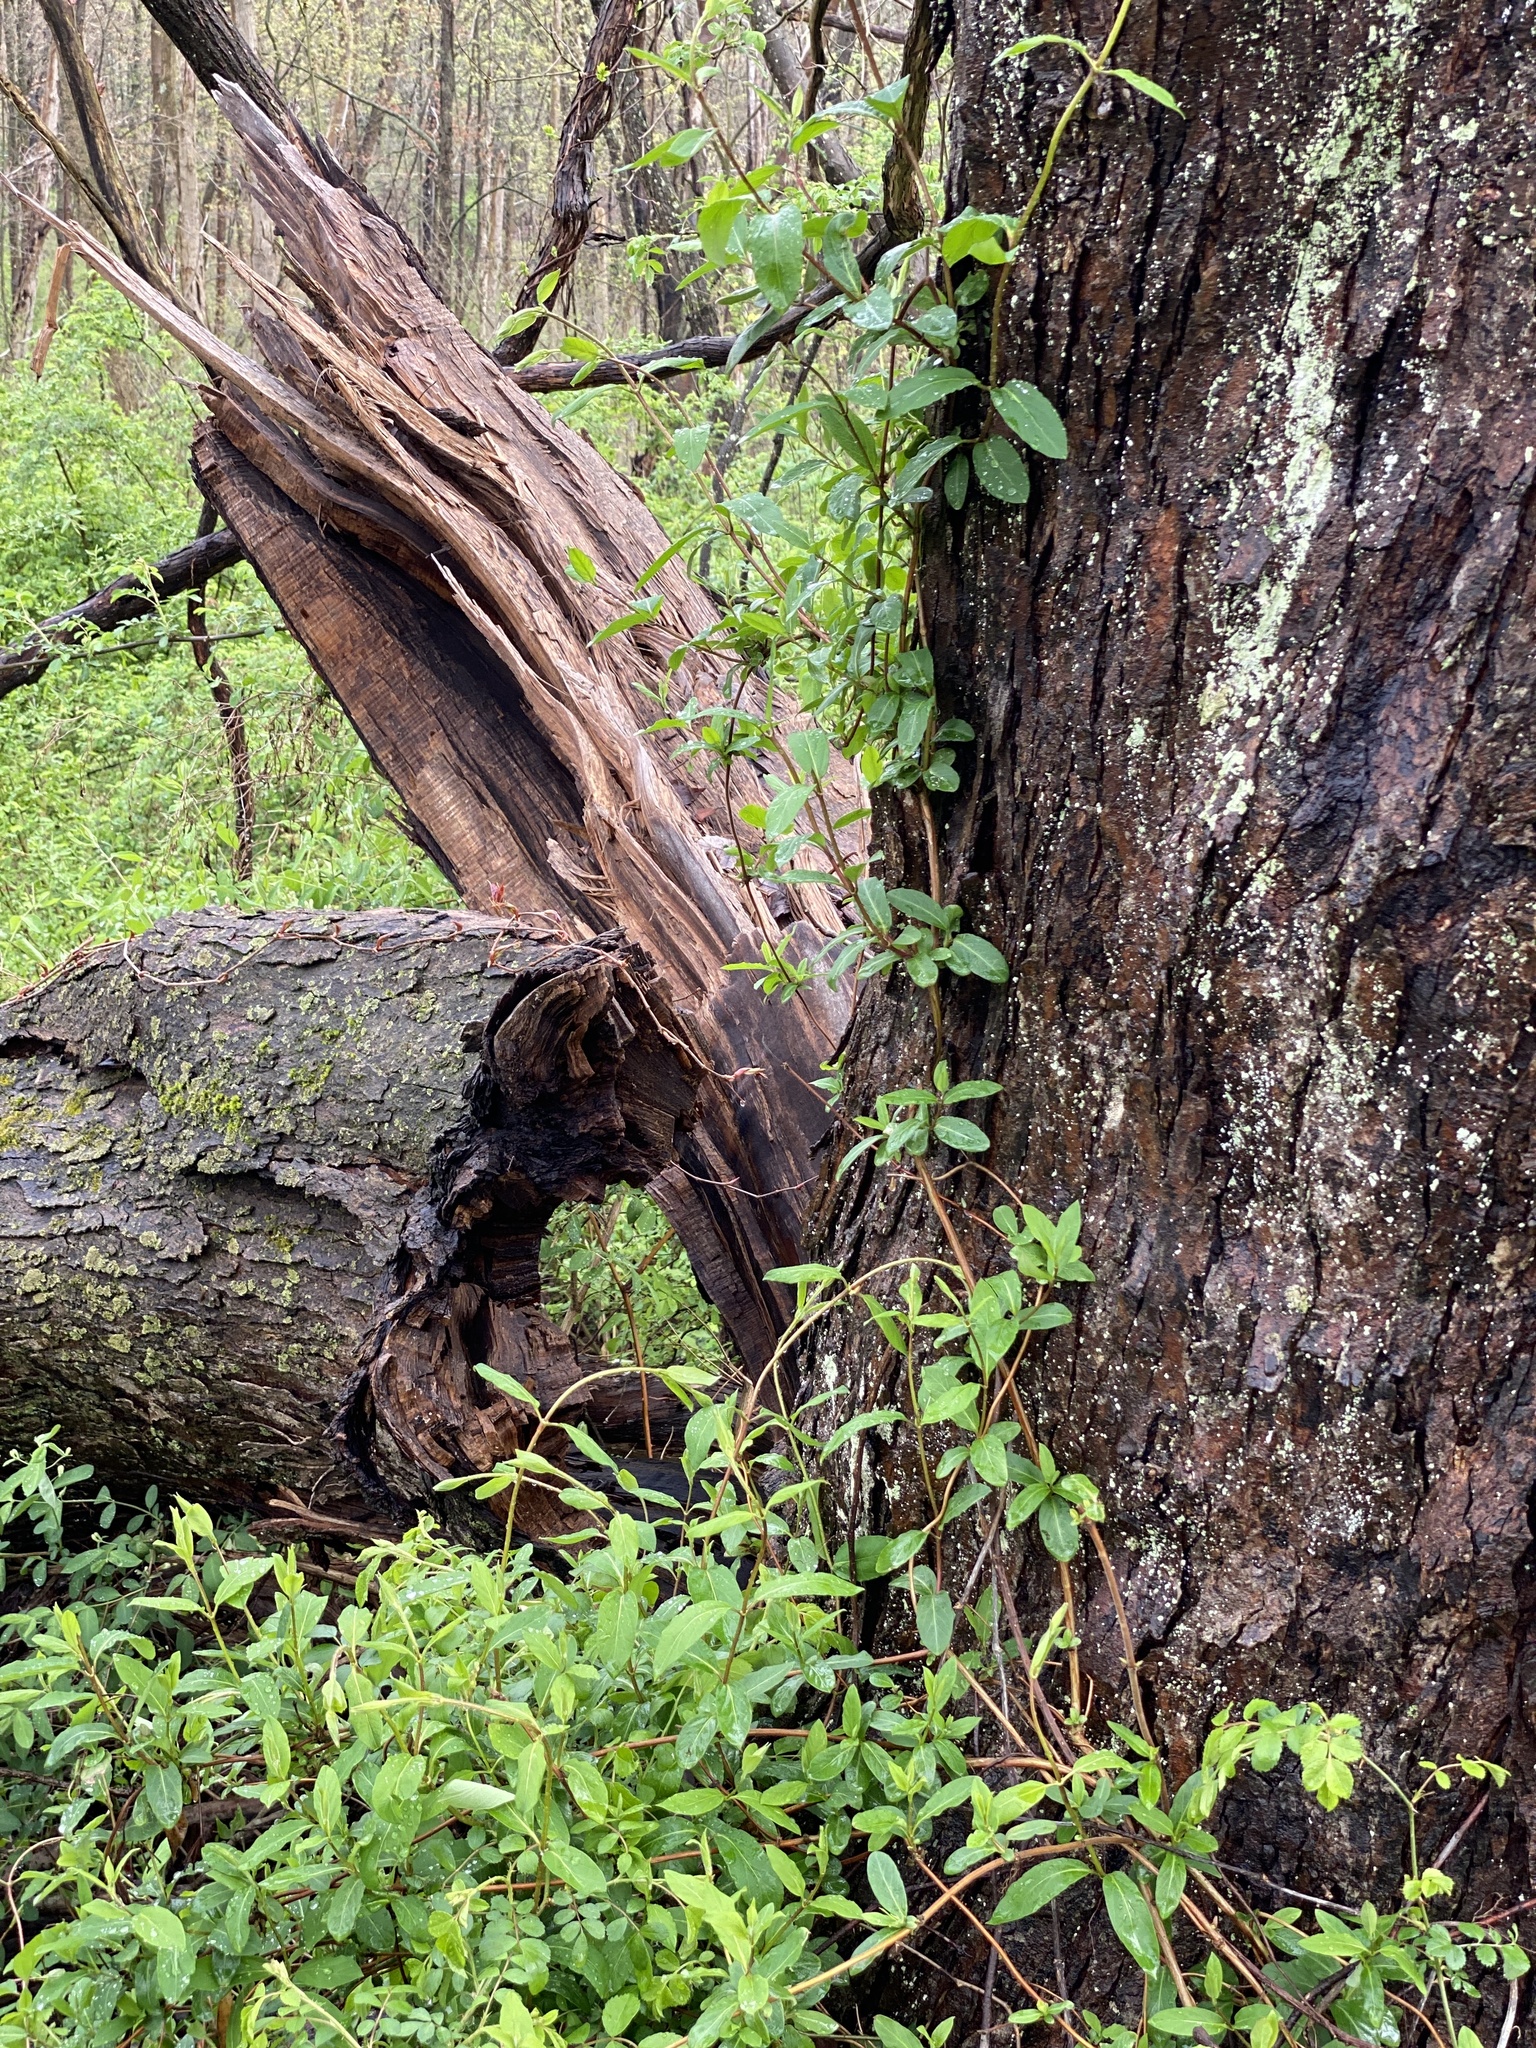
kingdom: Plantae
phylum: Tracheophyta
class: Magnoliopsida
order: Dipsacales
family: Caprifoliaceae
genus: Lonicera
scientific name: Lonicera japonica
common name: Japanese honeysuckle
